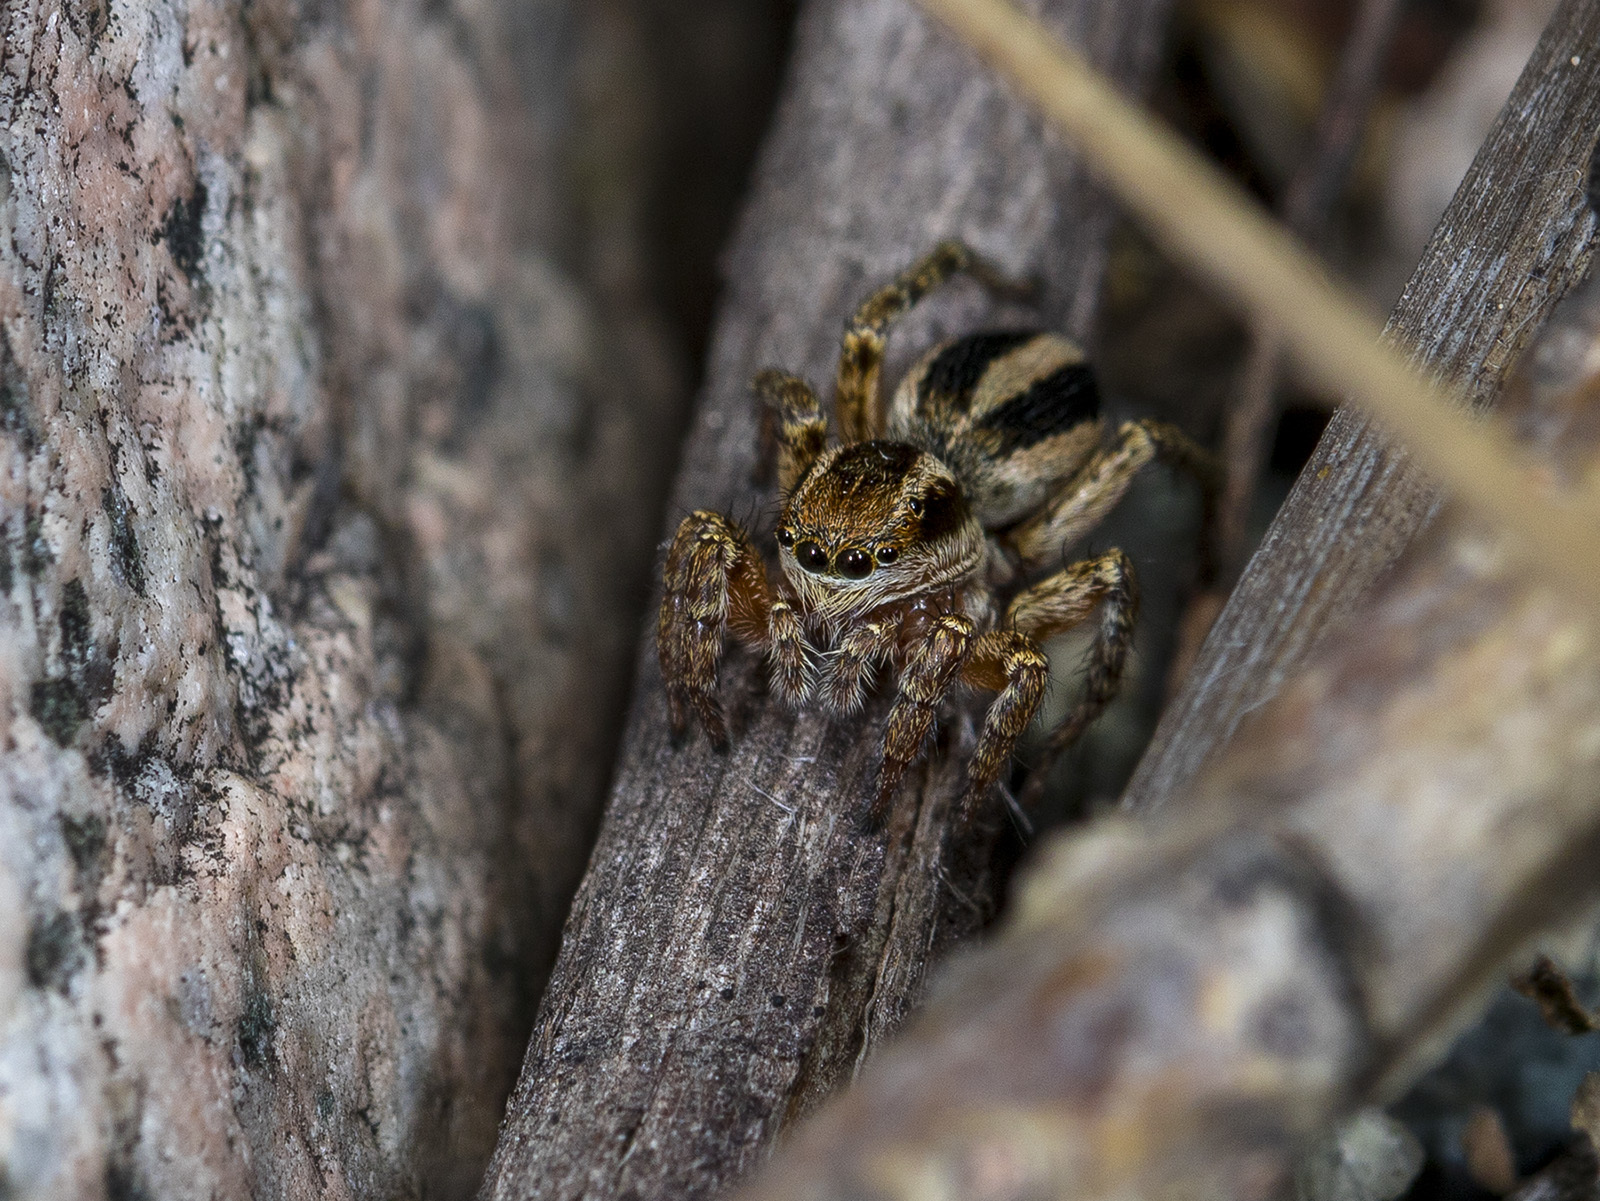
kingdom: Animalia
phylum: Arthropoda
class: Arachnida
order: Araneae
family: Salticidae
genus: Phlegra
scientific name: Phlegra fasciata
